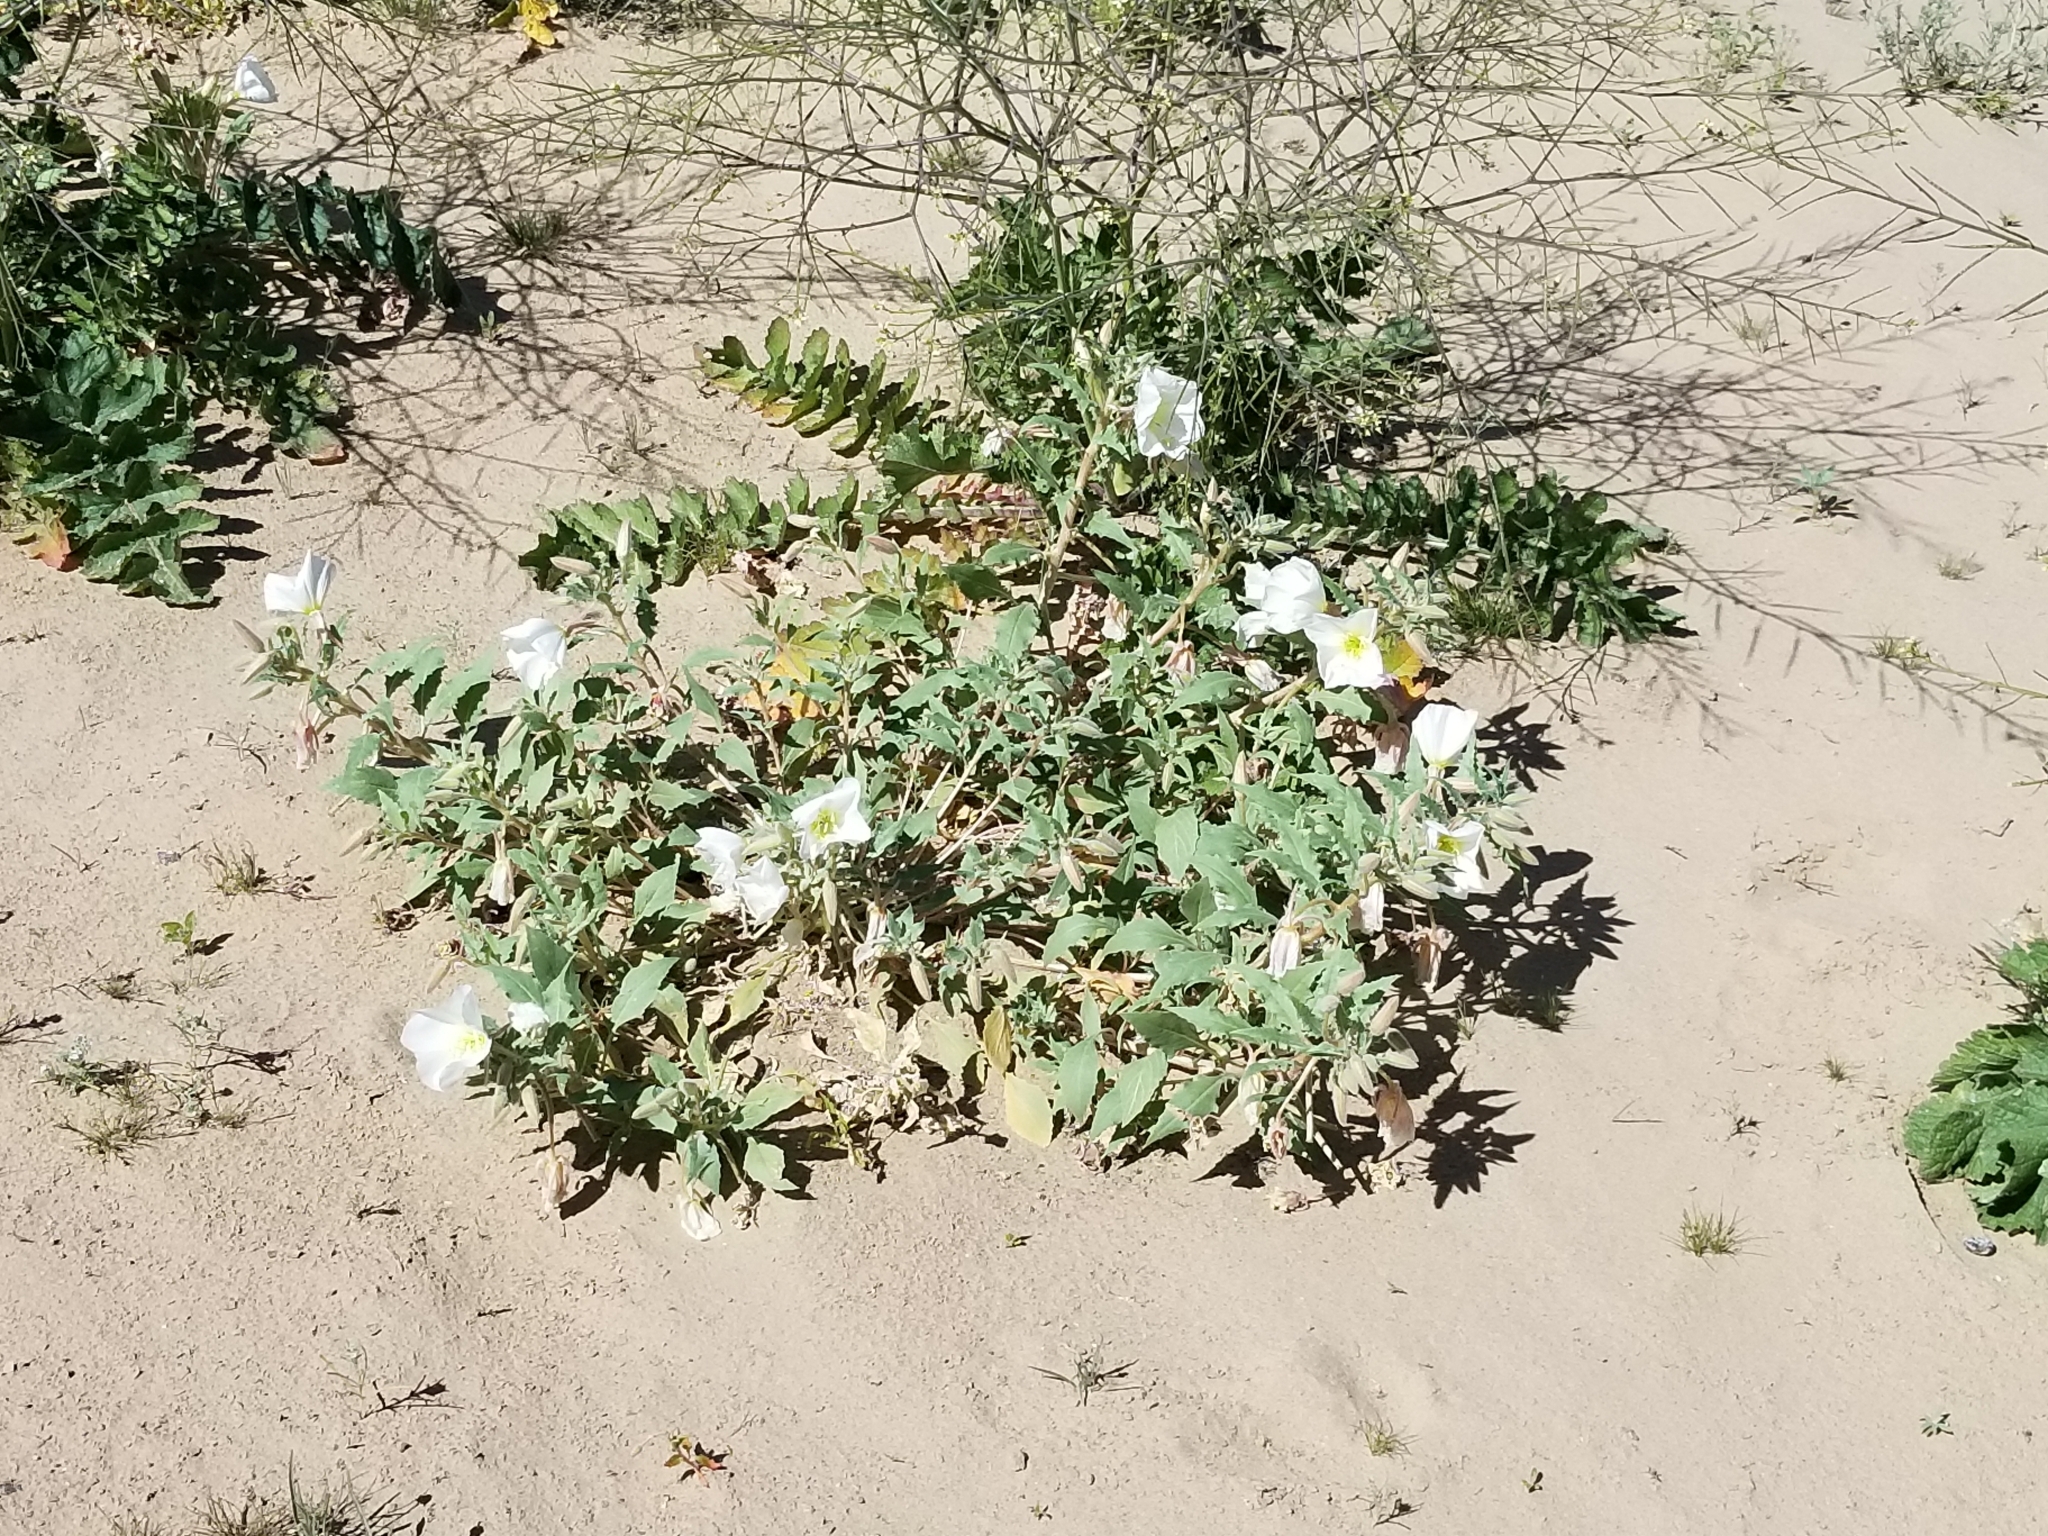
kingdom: Plantae
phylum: Tracheophyta
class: Magnoliopsida
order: Myrtales
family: Onagraceae
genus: Oenothera
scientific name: Oenothera deltoides
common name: Basket evening-primrose
